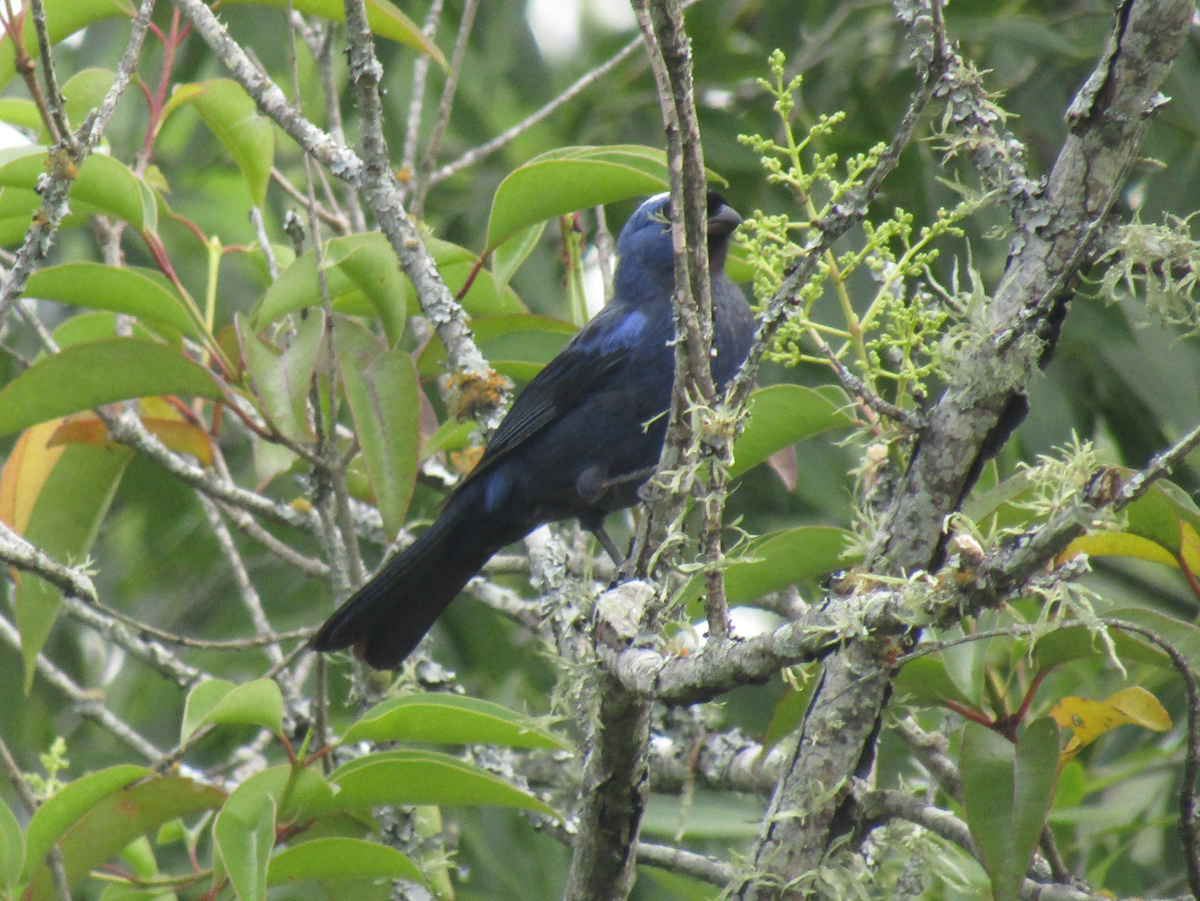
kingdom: Animalia
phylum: Chordata
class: Aves
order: Passeriformes
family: Thraupidae
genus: Stephanophorus
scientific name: Stephanophorus diadematus
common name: Diademed tanager
